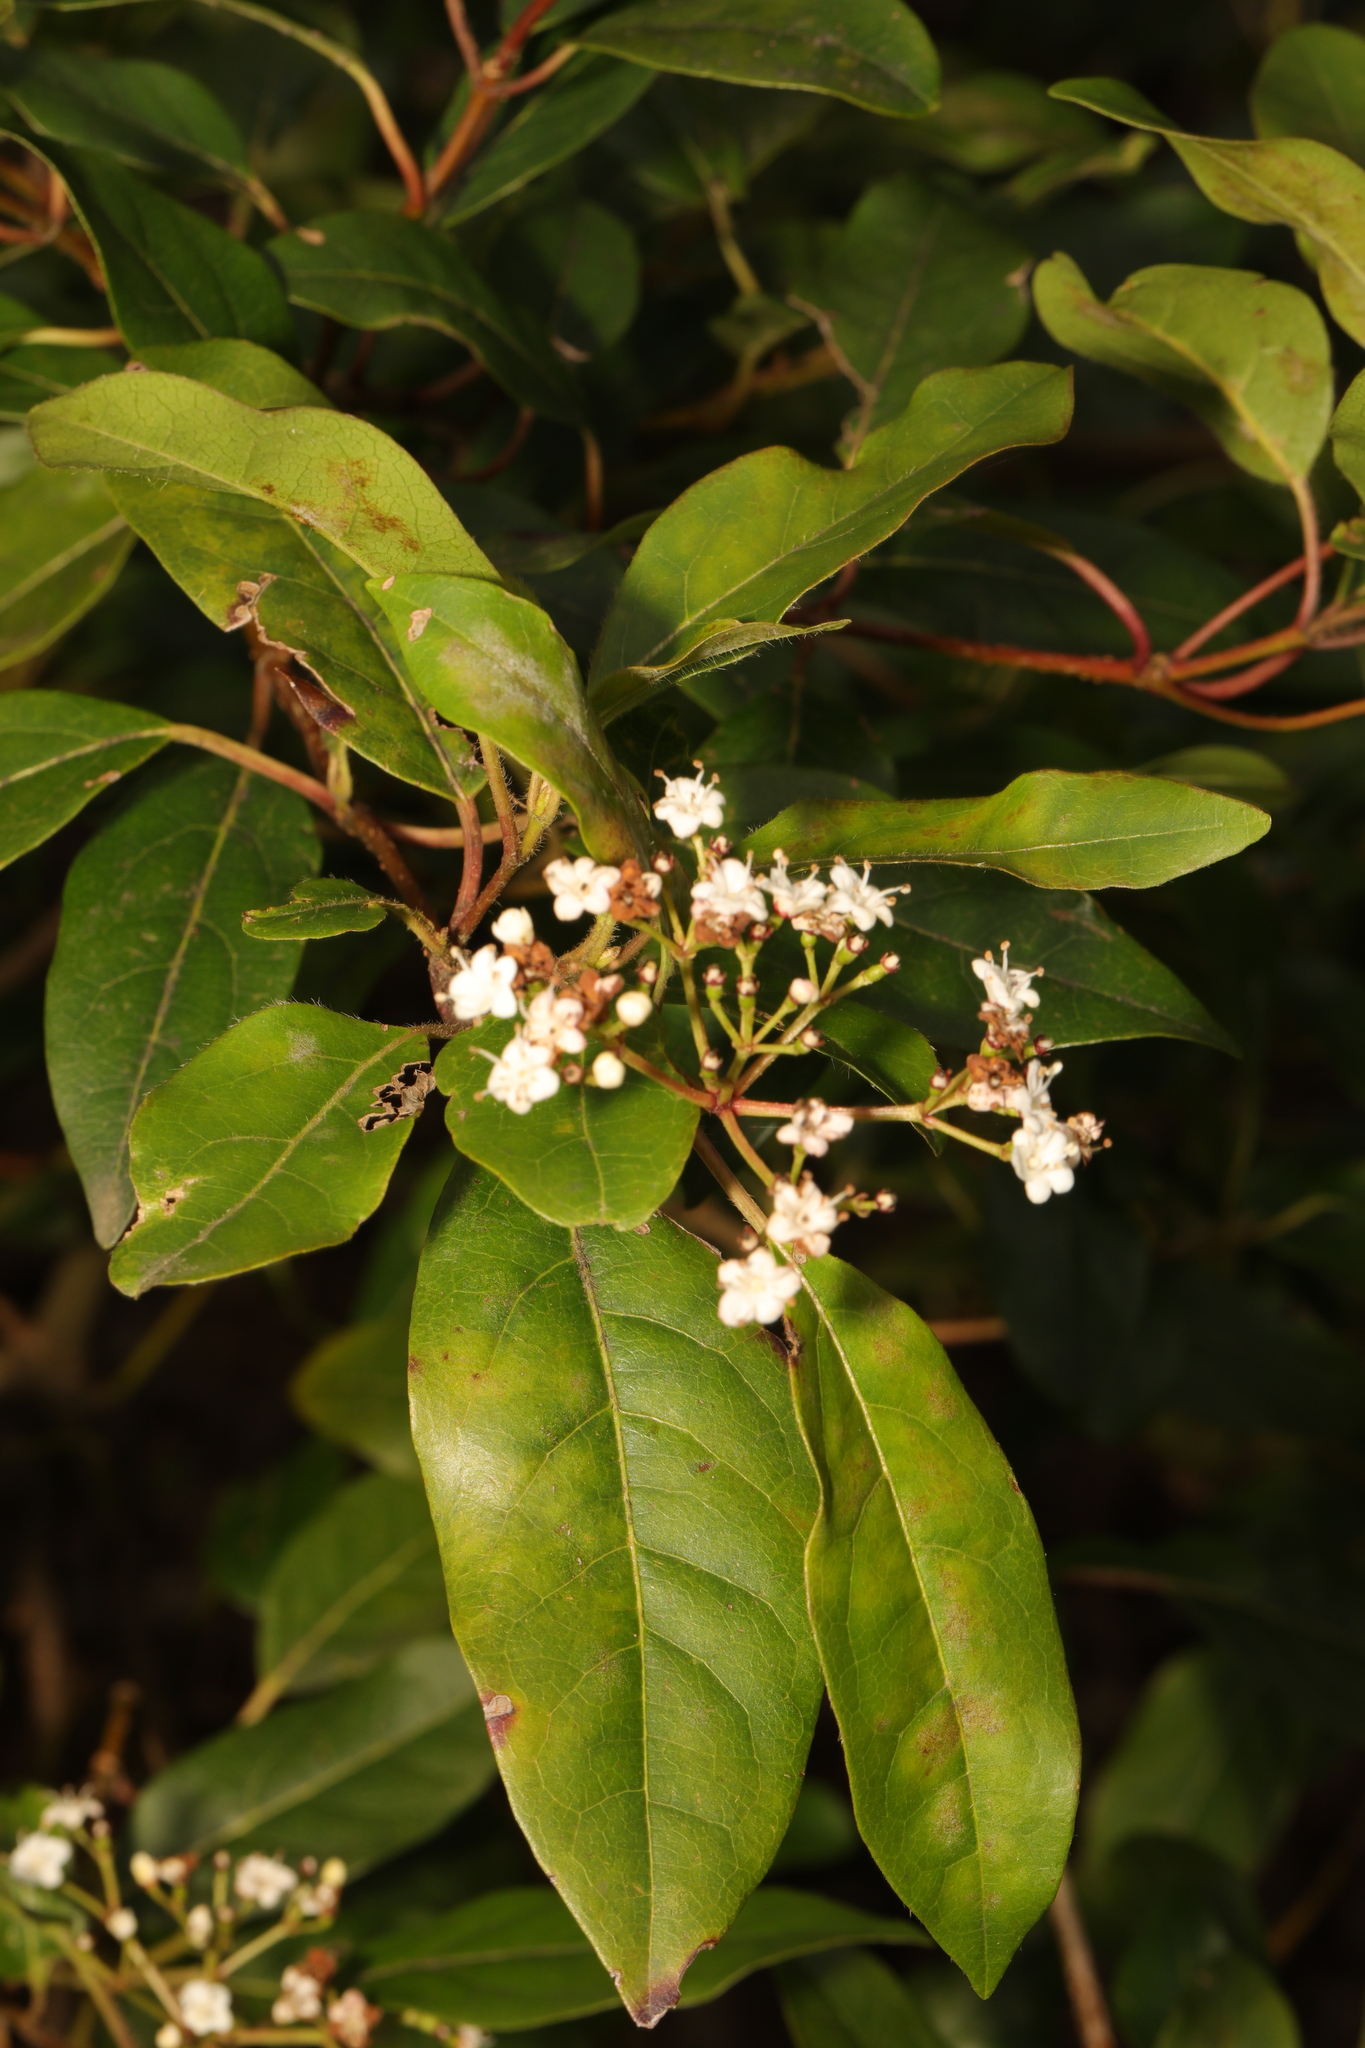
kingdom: Plantae
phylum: Tracheophyta
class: Magnoliopsida
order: Dipsacales
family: Viburnaceae
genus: Viburnum
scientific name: Viburnum tinus
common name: Laurustinus
